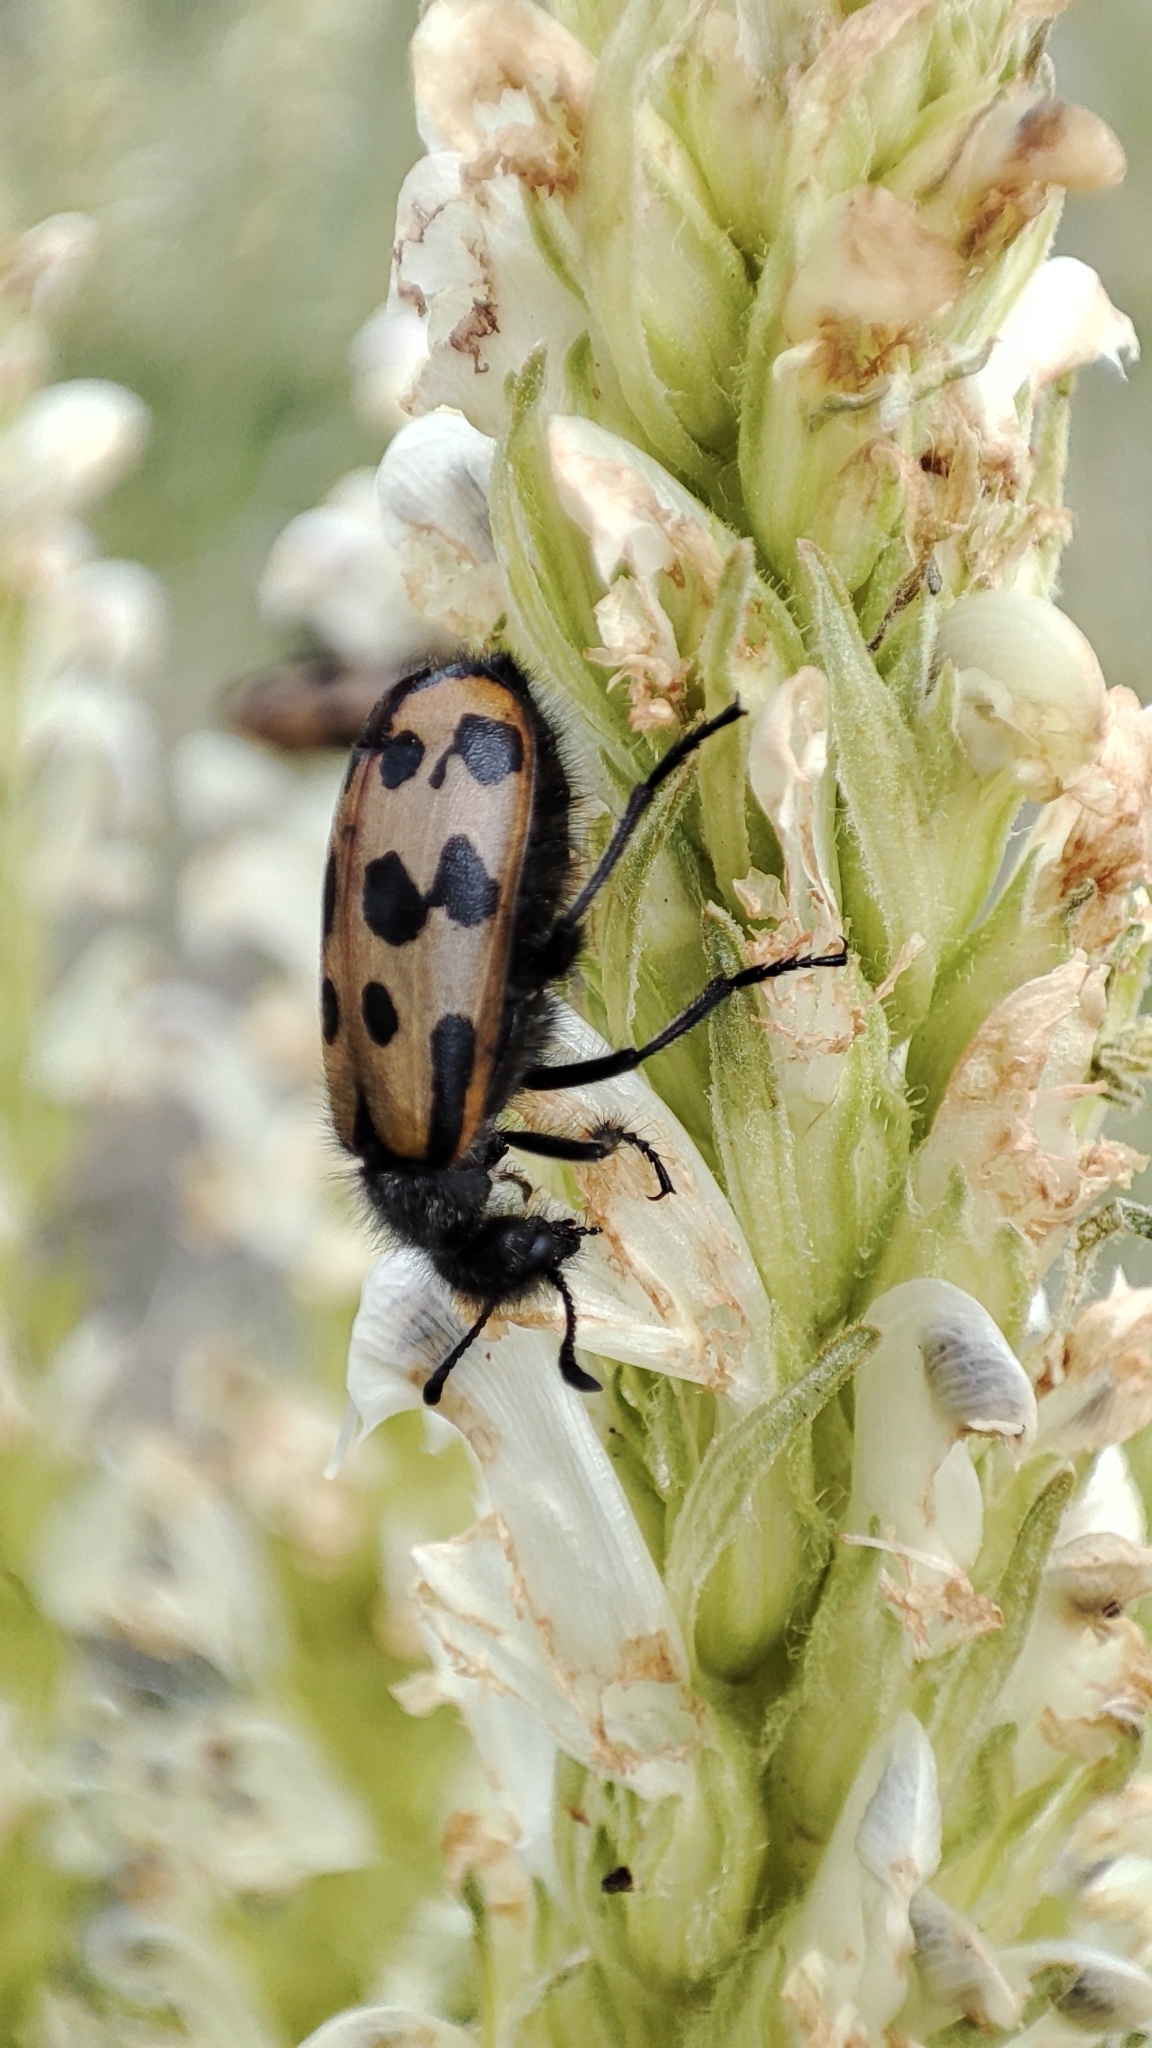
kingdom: Animalia
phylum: Arthropoda
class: Insecta
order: Coleoptera
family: Meloidae
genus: Hycleus
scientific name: Hycleus quatuordecimpunctatus
